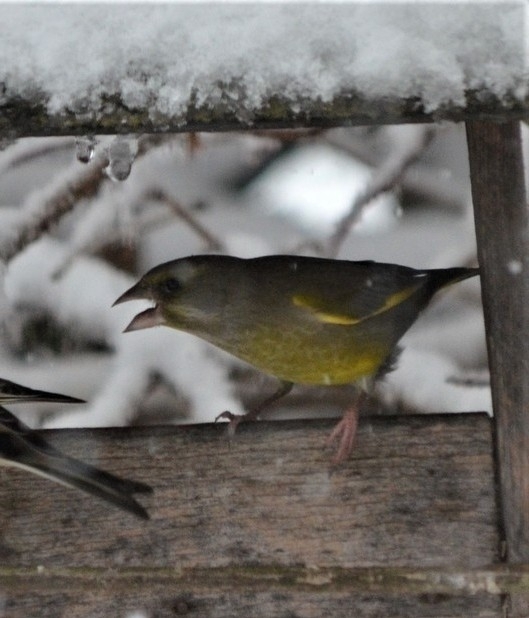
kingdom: Plantae
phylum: Tracheophyta
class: Liliopsida
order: Poales
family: Poaceae
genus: Chloris
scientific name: Chloris chloris
